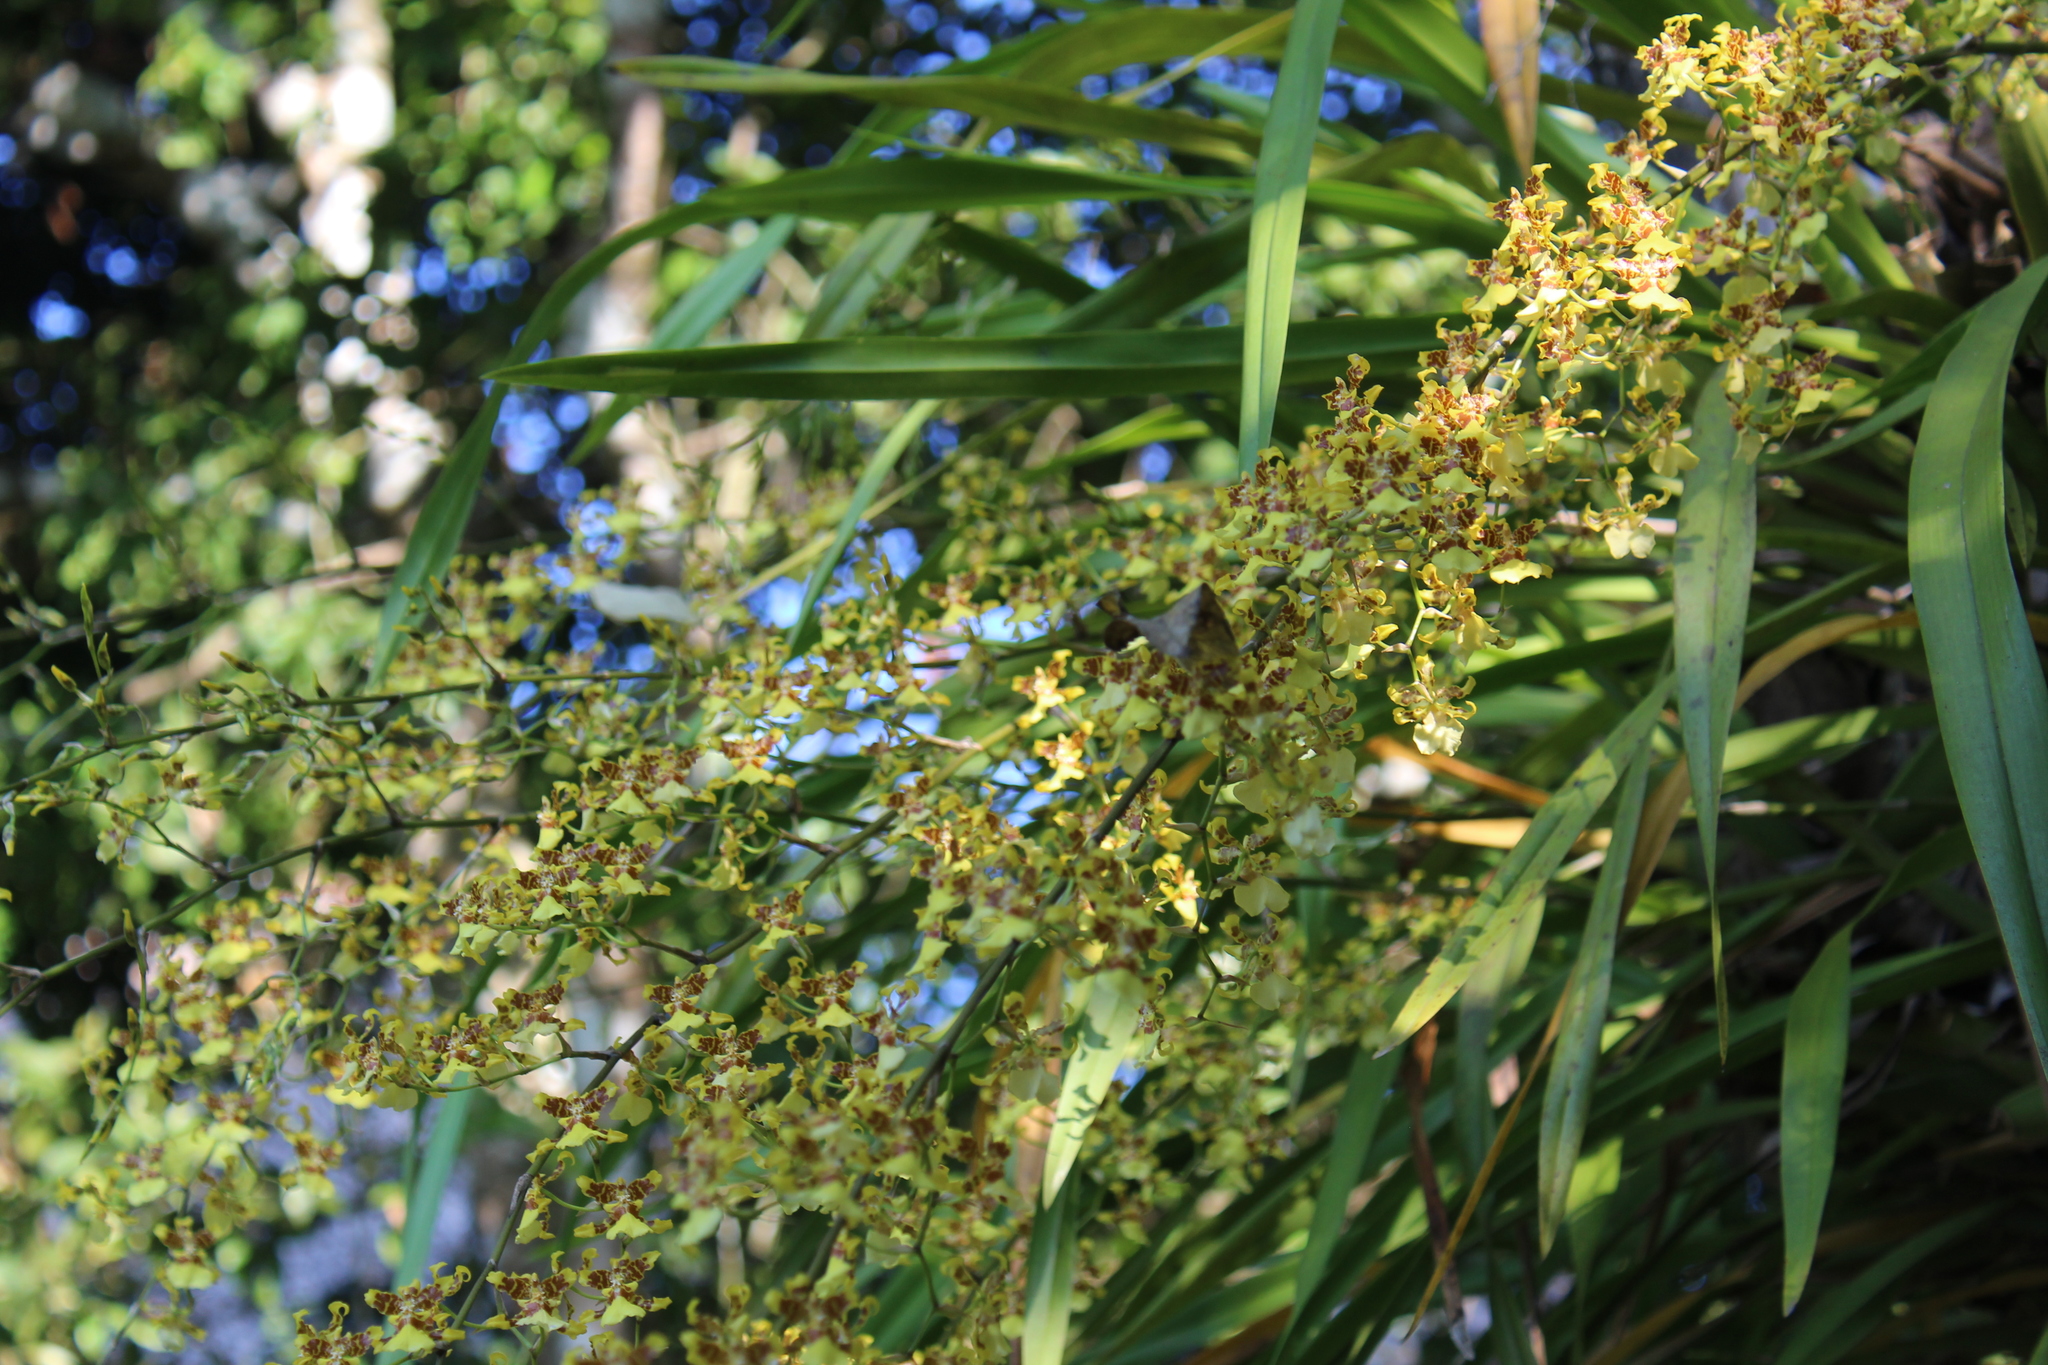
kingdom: Plantae
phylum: Tracheophyta
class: Liliopsida
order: Asparagales
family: Orchidaceae
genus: Oncidium
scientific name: Oncidium sphacelatum
